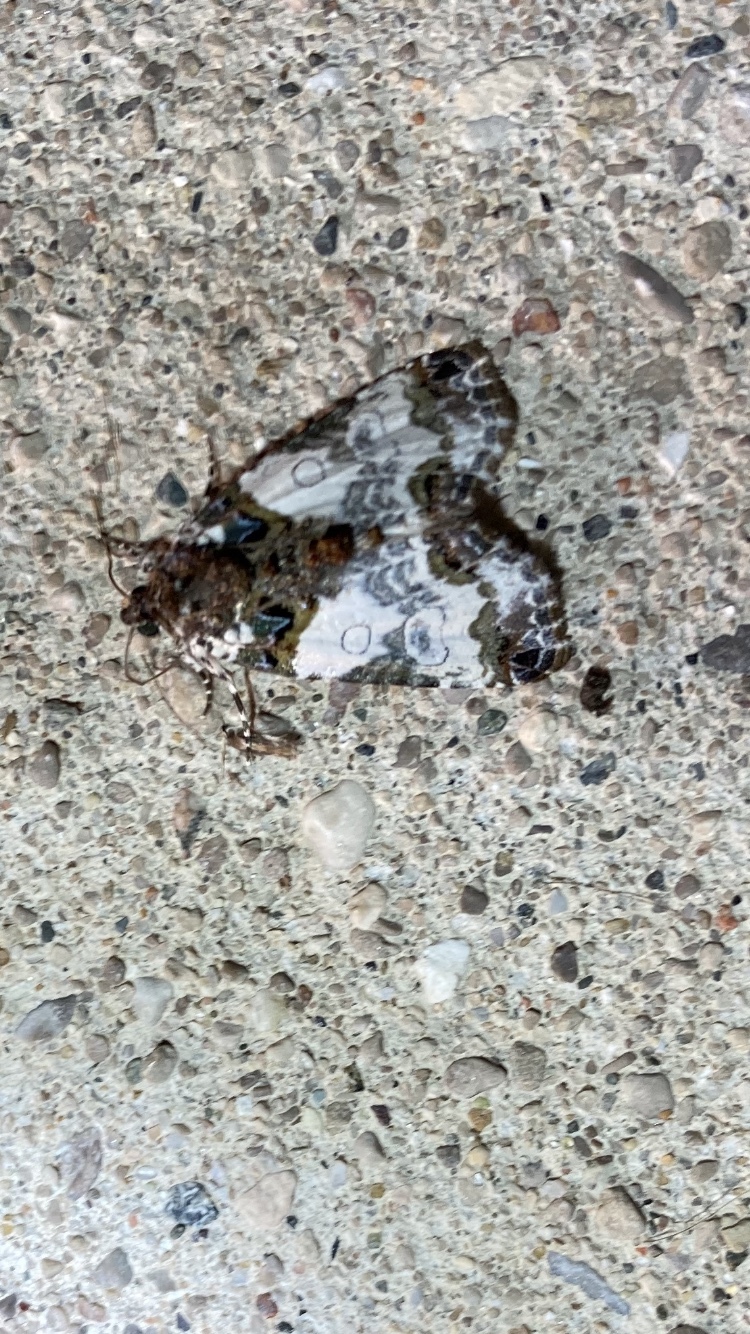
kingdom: Animalia
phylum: Arthropoda
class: Insecta
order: Lepidoptera
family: Noctuidae
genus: Cerma
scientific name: Cerma cerintha
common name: Tufted bird-dropping moth
